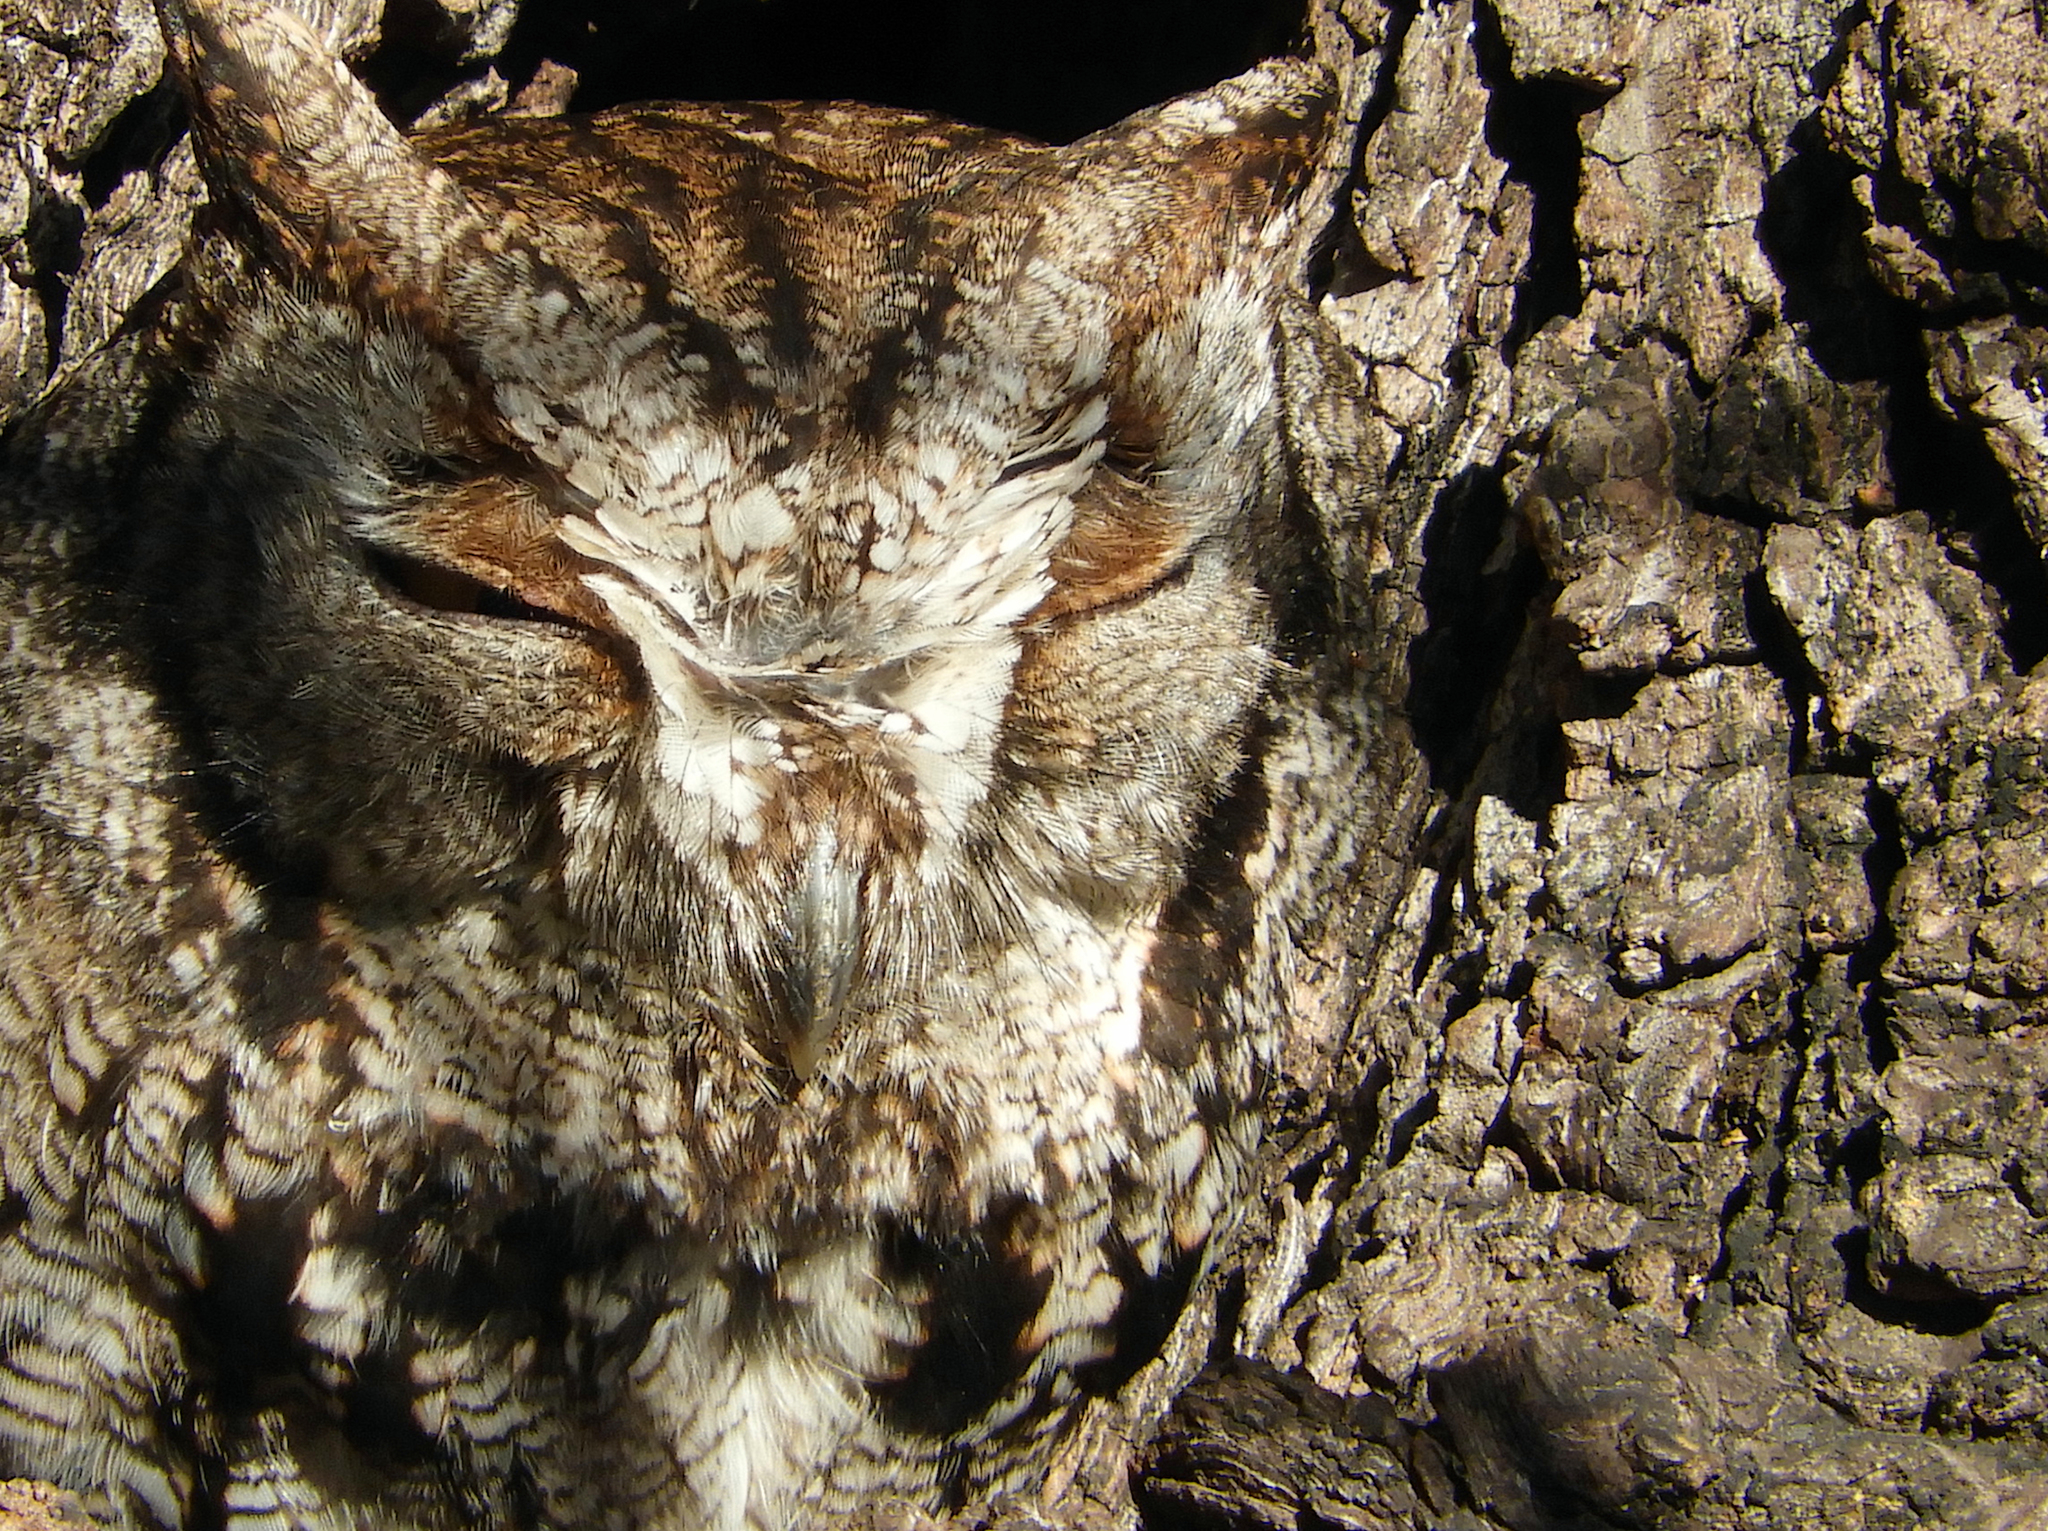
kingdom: Animalia
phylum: Chordata
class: Aves
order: Strigiformes
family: Strigidae
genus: Megascops
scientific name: Megascops kennicottii
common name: Western screech-owl
